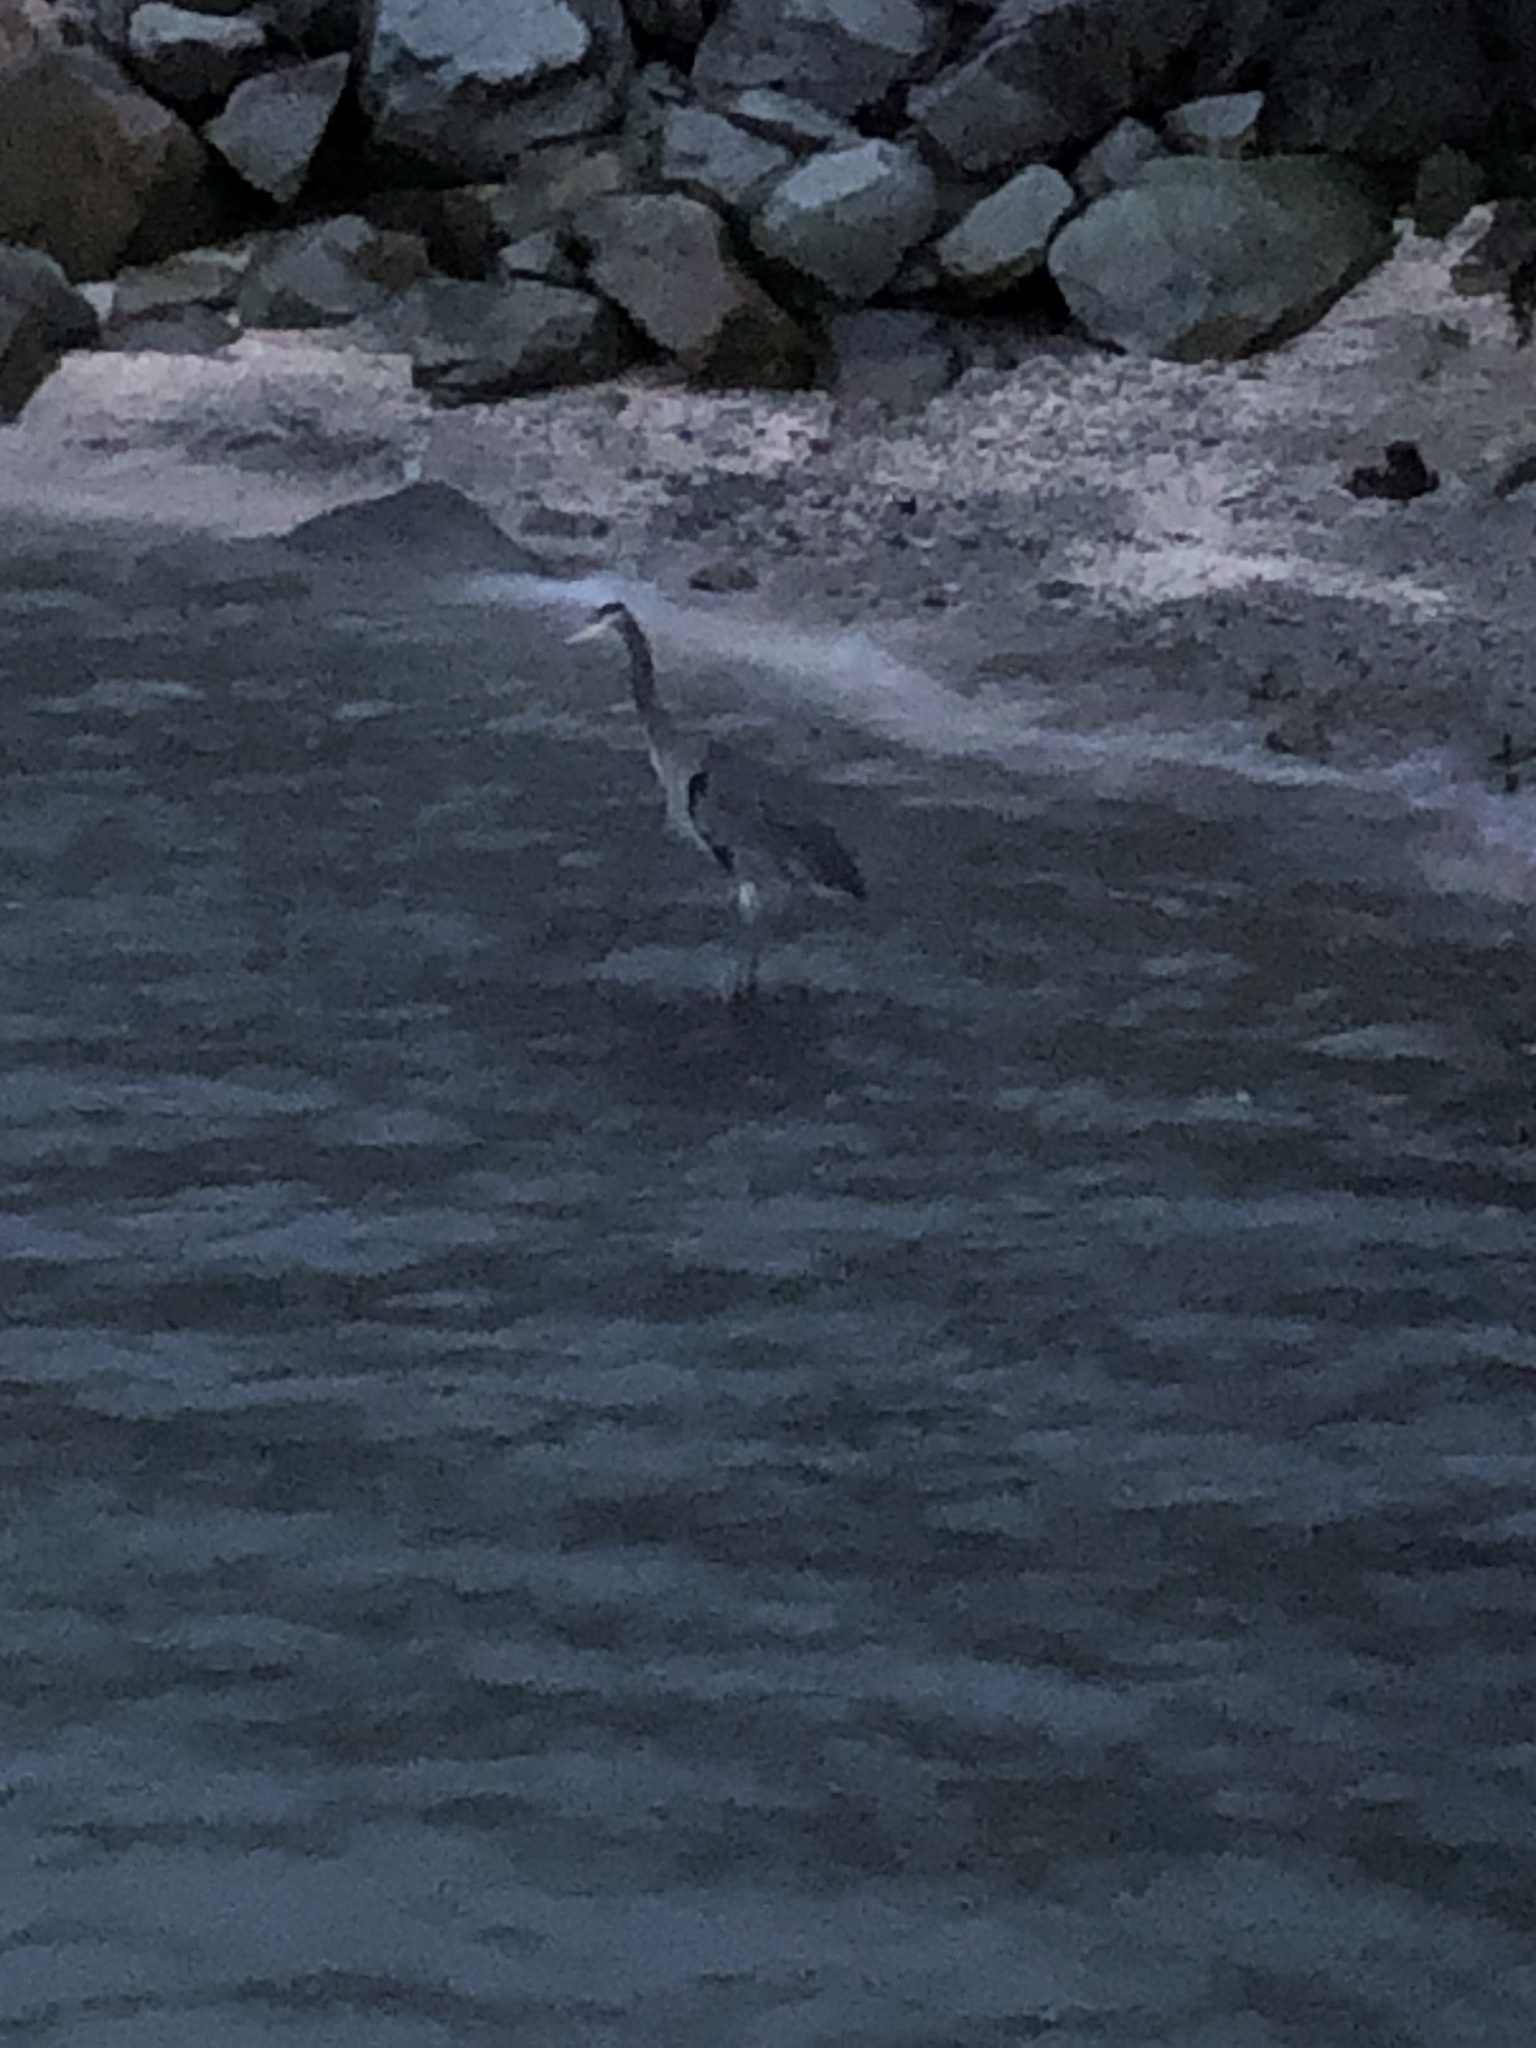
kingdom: Animalia
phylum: Chordata
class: Aves
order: Pelecaniformes
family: Ardeidae
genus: Ardea
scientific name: Ardea herodias
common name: Great blue heron
